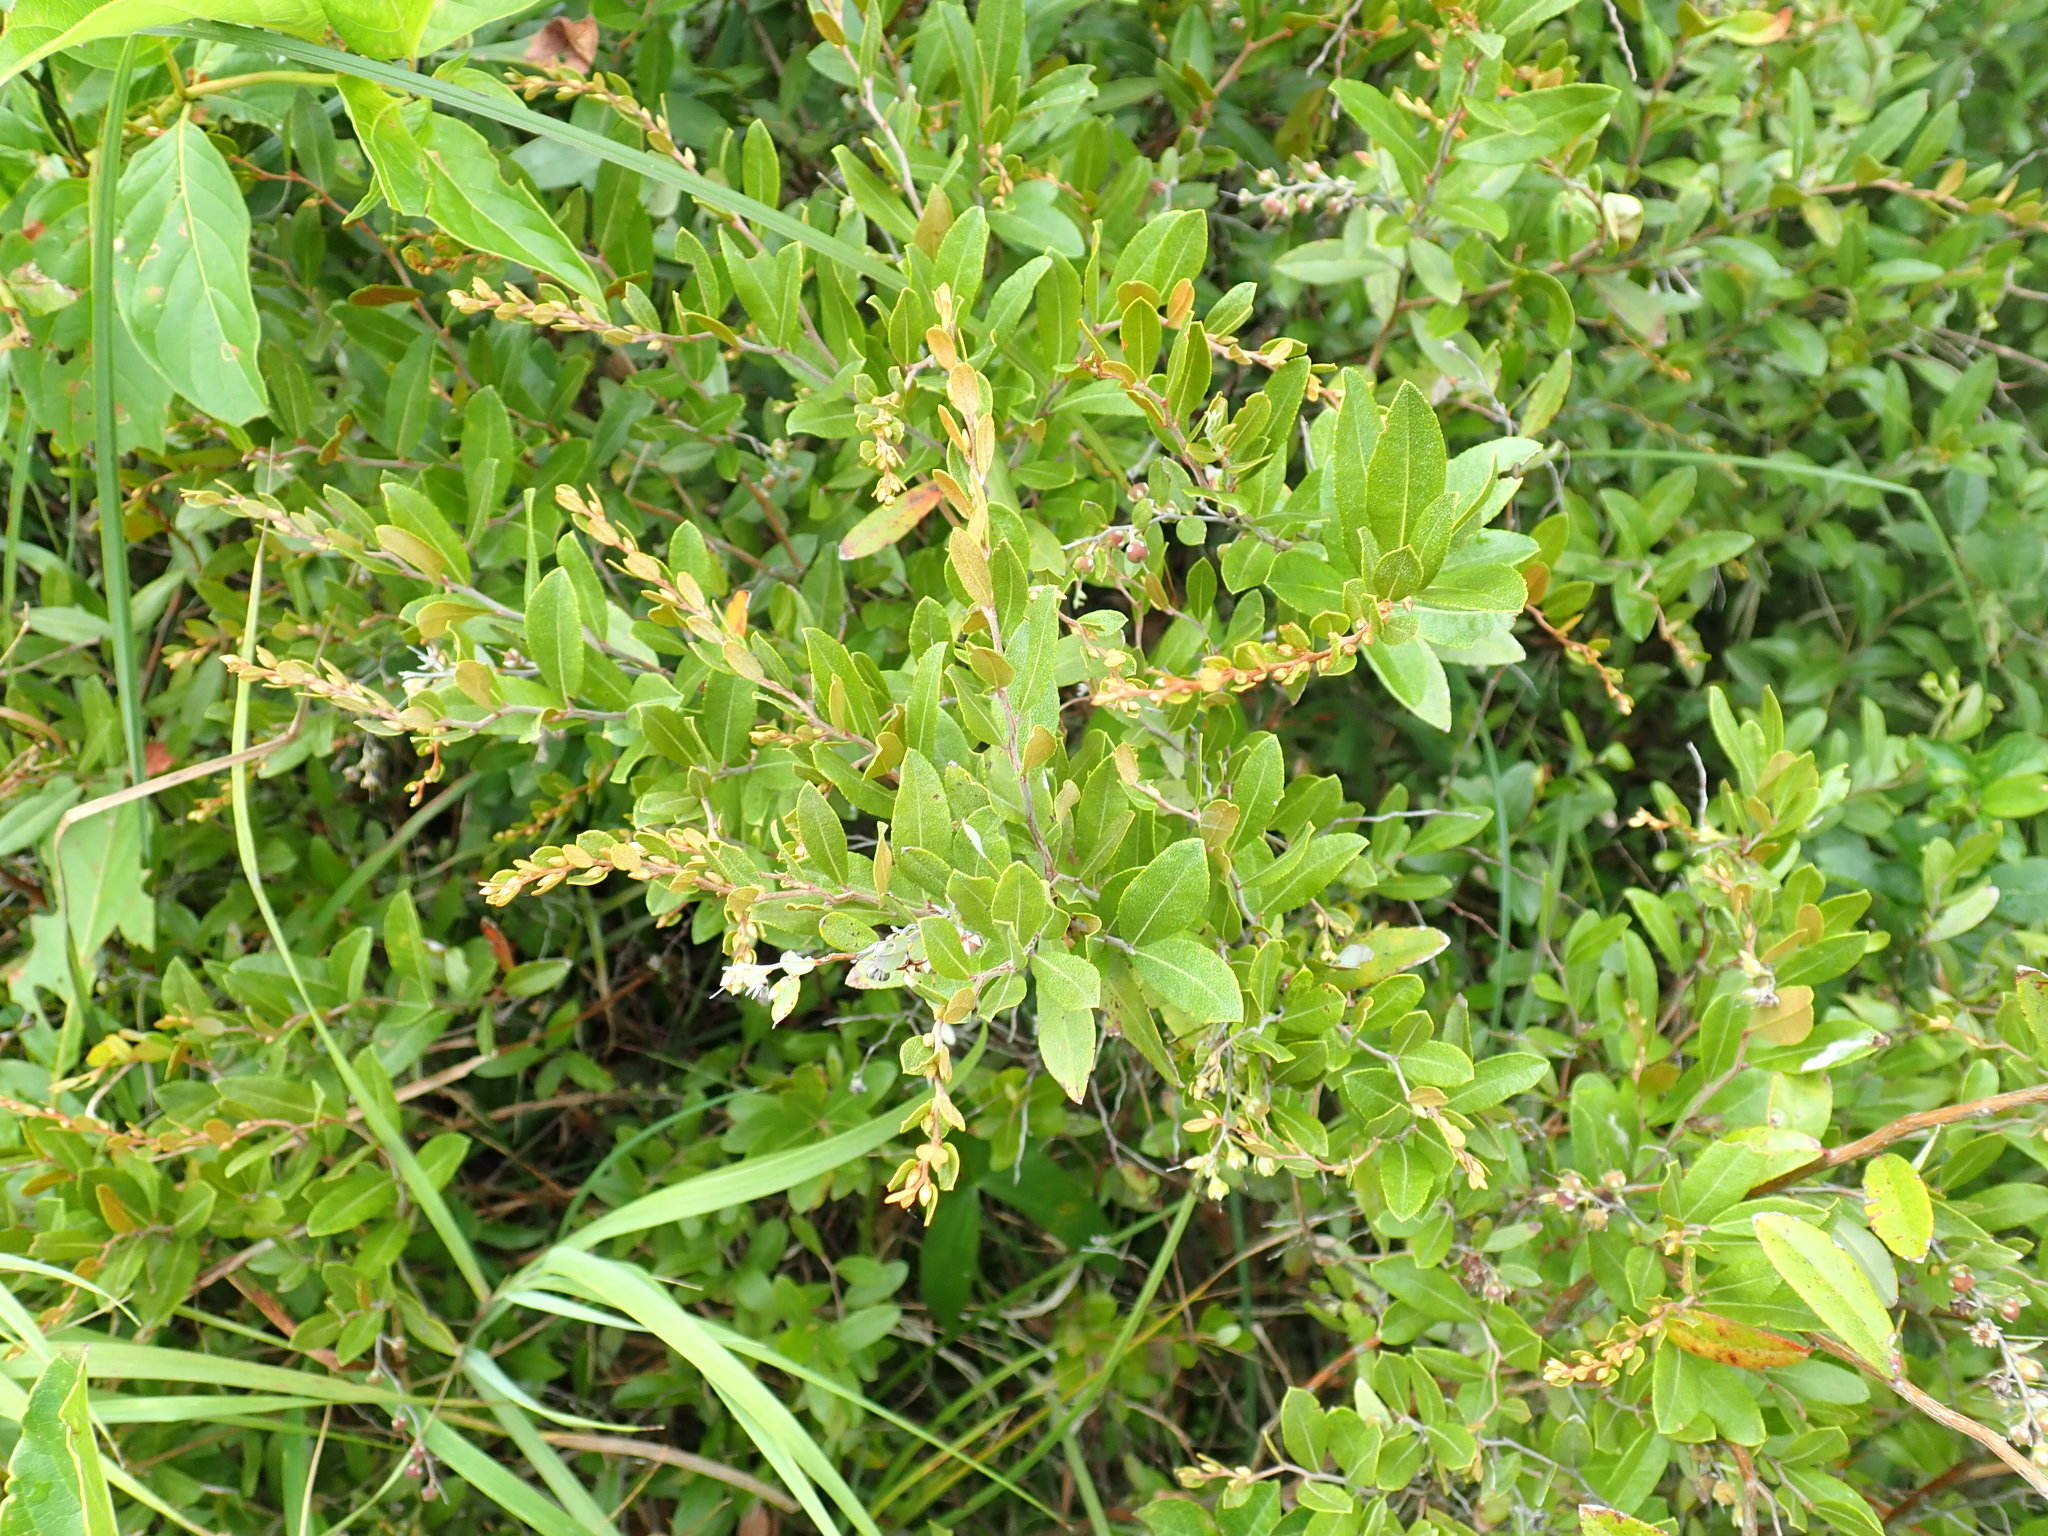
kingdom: Plantae
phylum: Tracheophyta
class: Magnoliopsida
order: Ericales
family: Ericaceae
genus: Chamaedaphne
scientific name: Chamaedaphne calyculata
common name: Leatherleaf
